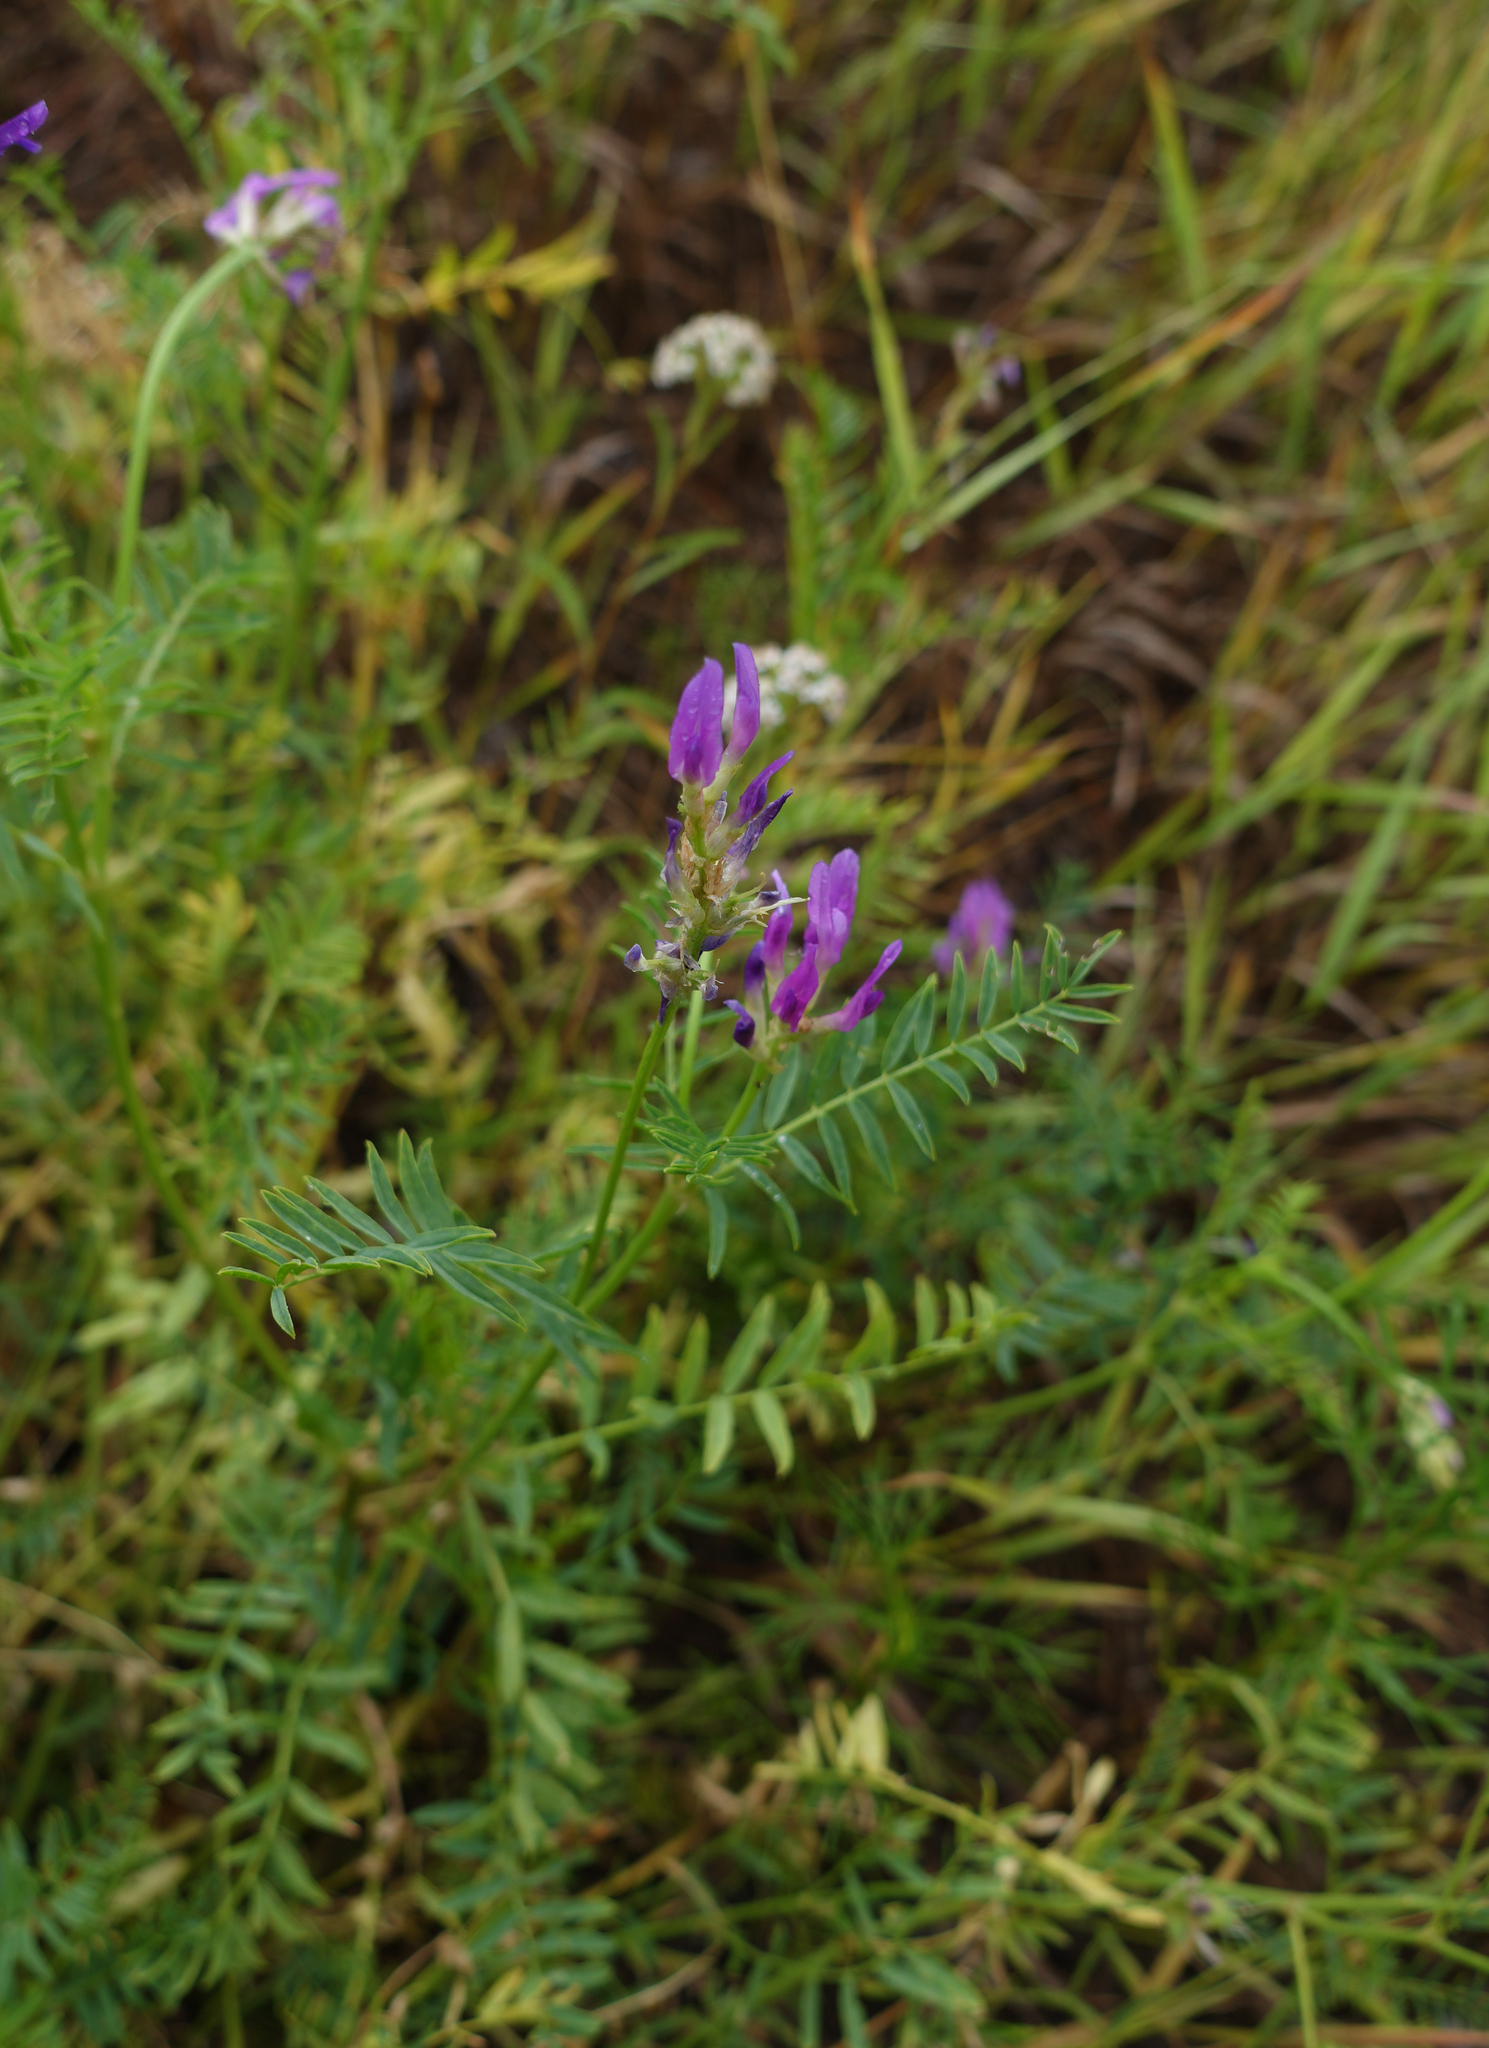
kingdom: Plantae
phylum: Tracheophyta
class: Magnoliopsida
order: Fabales
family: Fabaceae
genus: Astragalus
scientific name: Astragalus onobrychis
